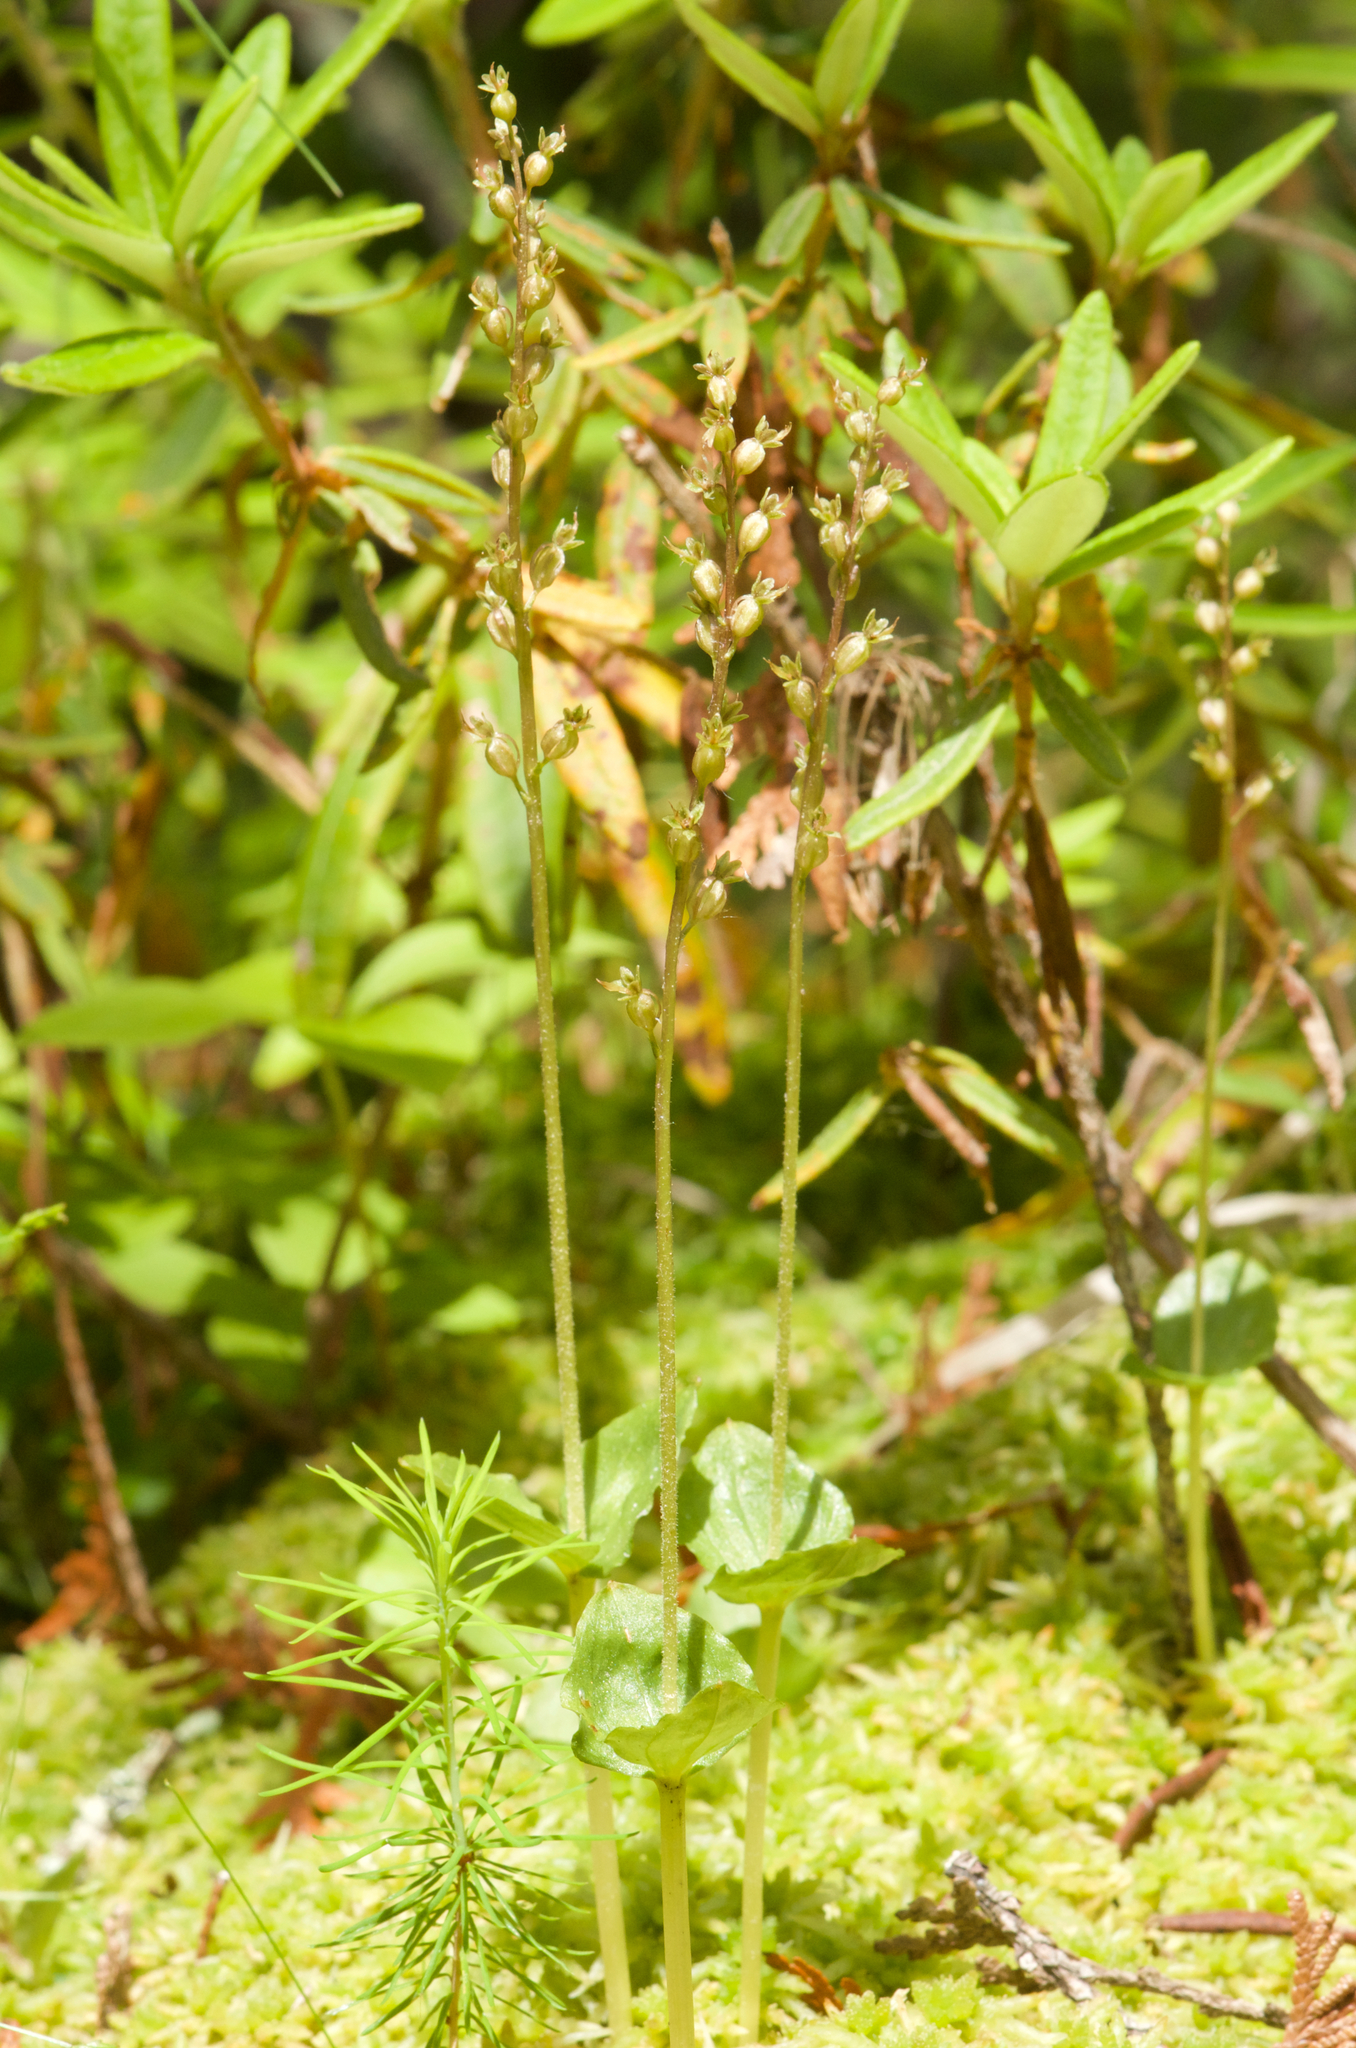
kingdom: Plantae
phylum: Tracheophyta
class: Liliopsida
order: Asparagales
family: Orchidaceae
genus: Neottia
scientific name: Neottia cordata
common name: Lesser twayblade
